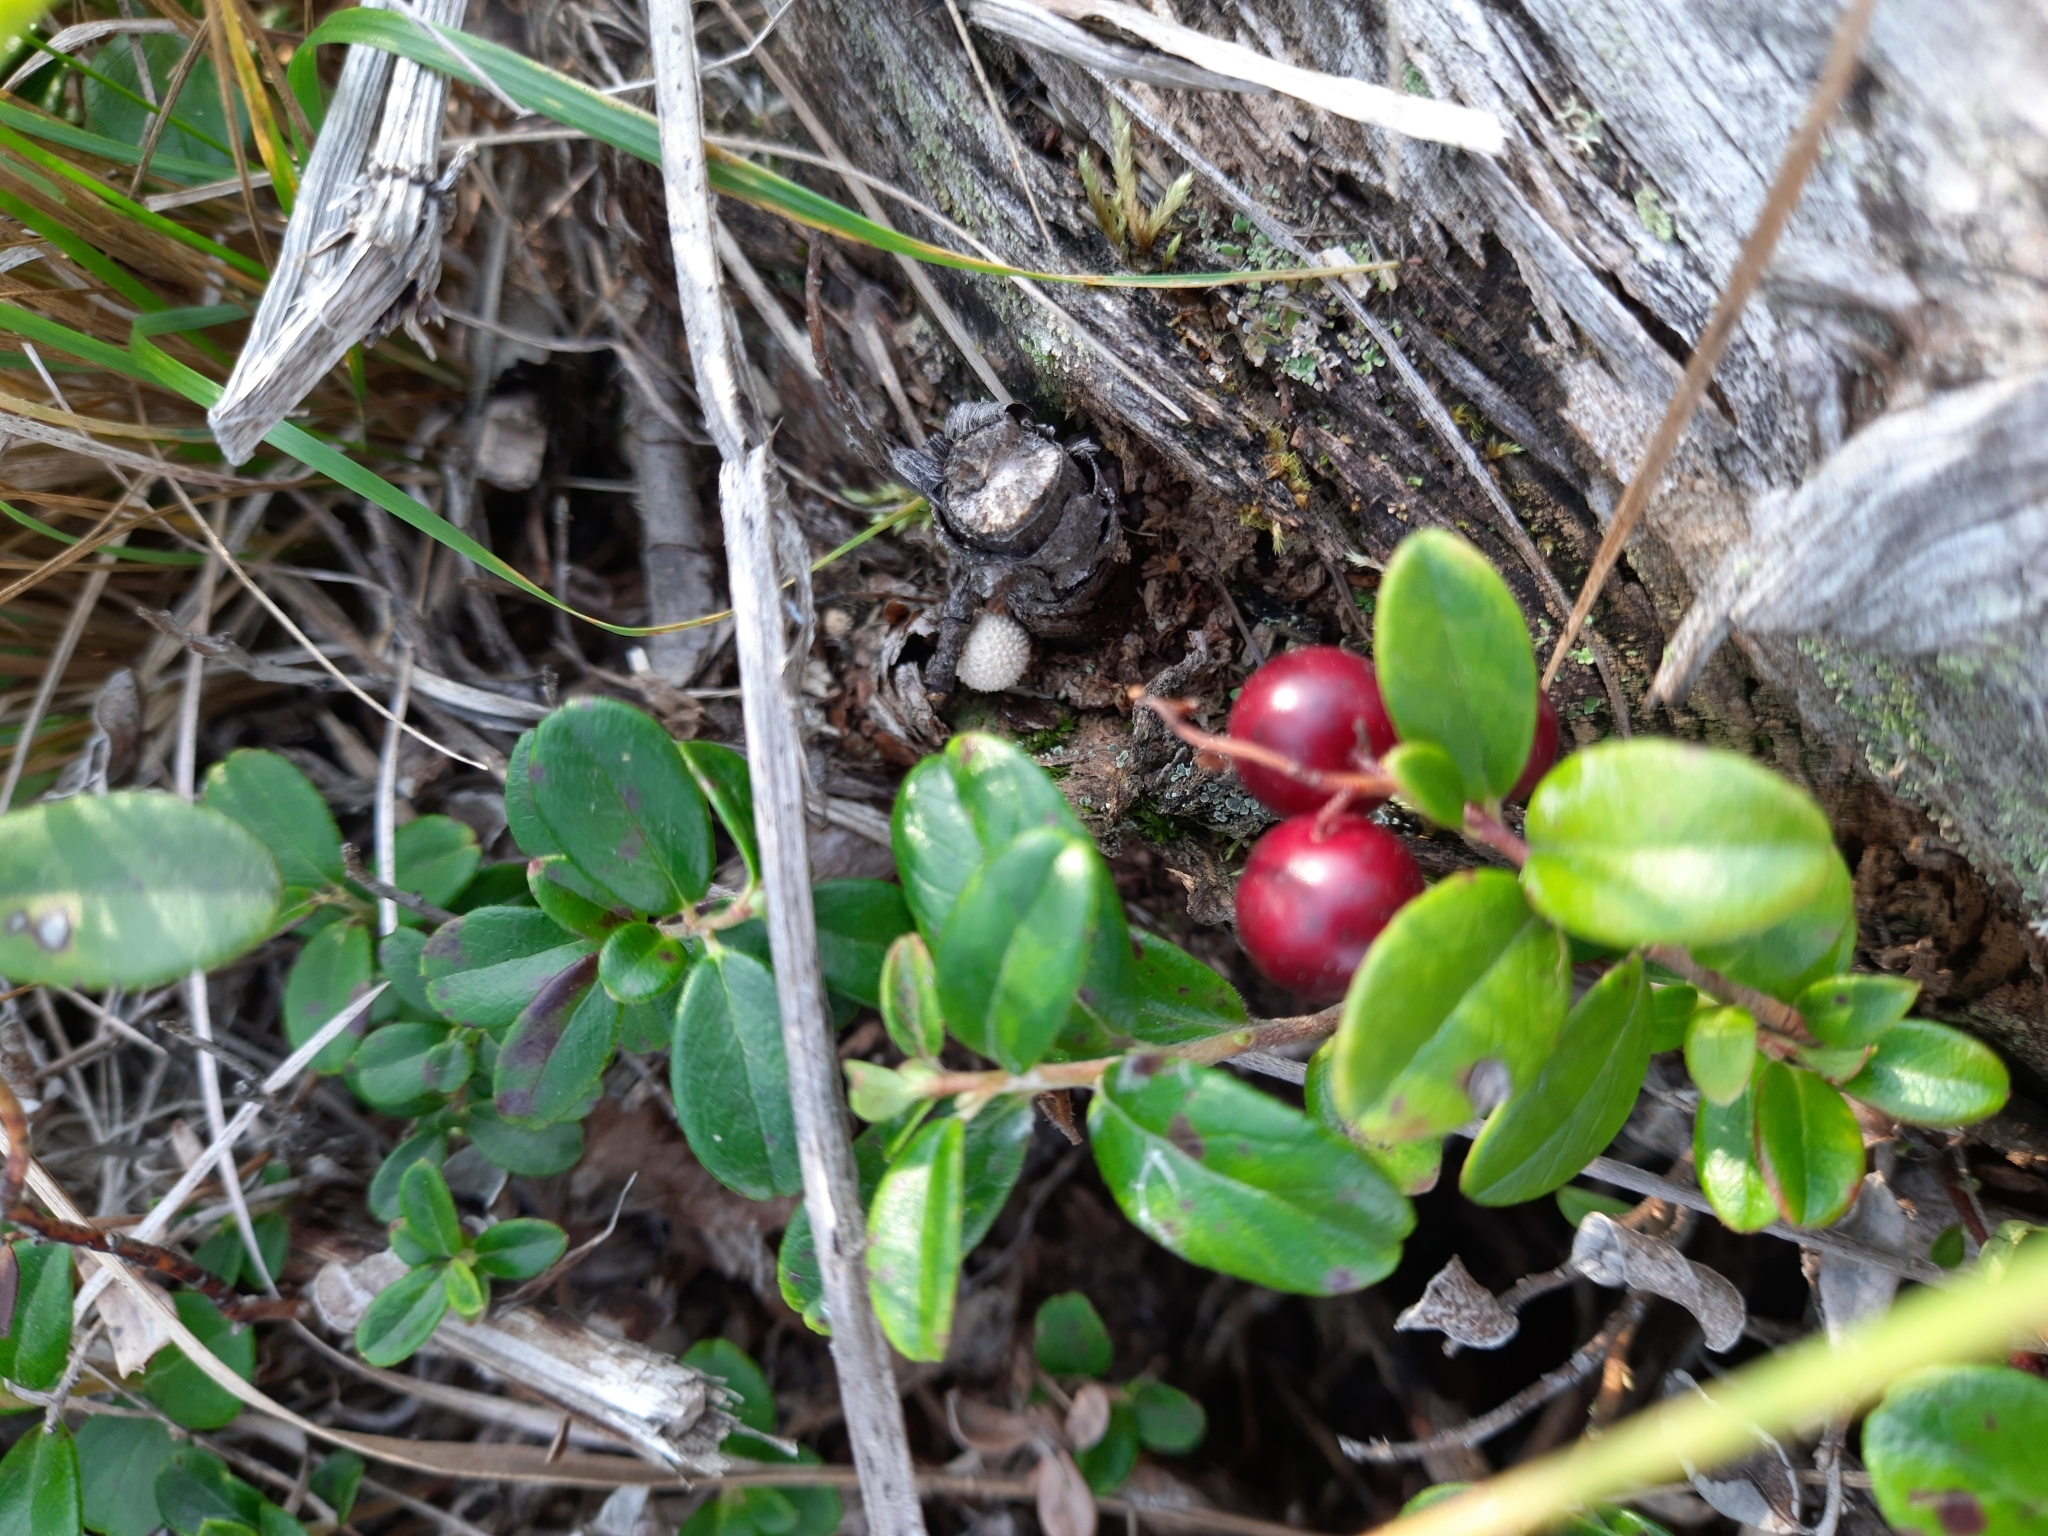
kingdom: Plantae
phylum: Tracheophyta
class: Magnoliopsida
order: Ericales
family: Ericaceae
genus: Vaccinium
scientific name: Vaccinium vitis-idaea
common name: Cowberry
